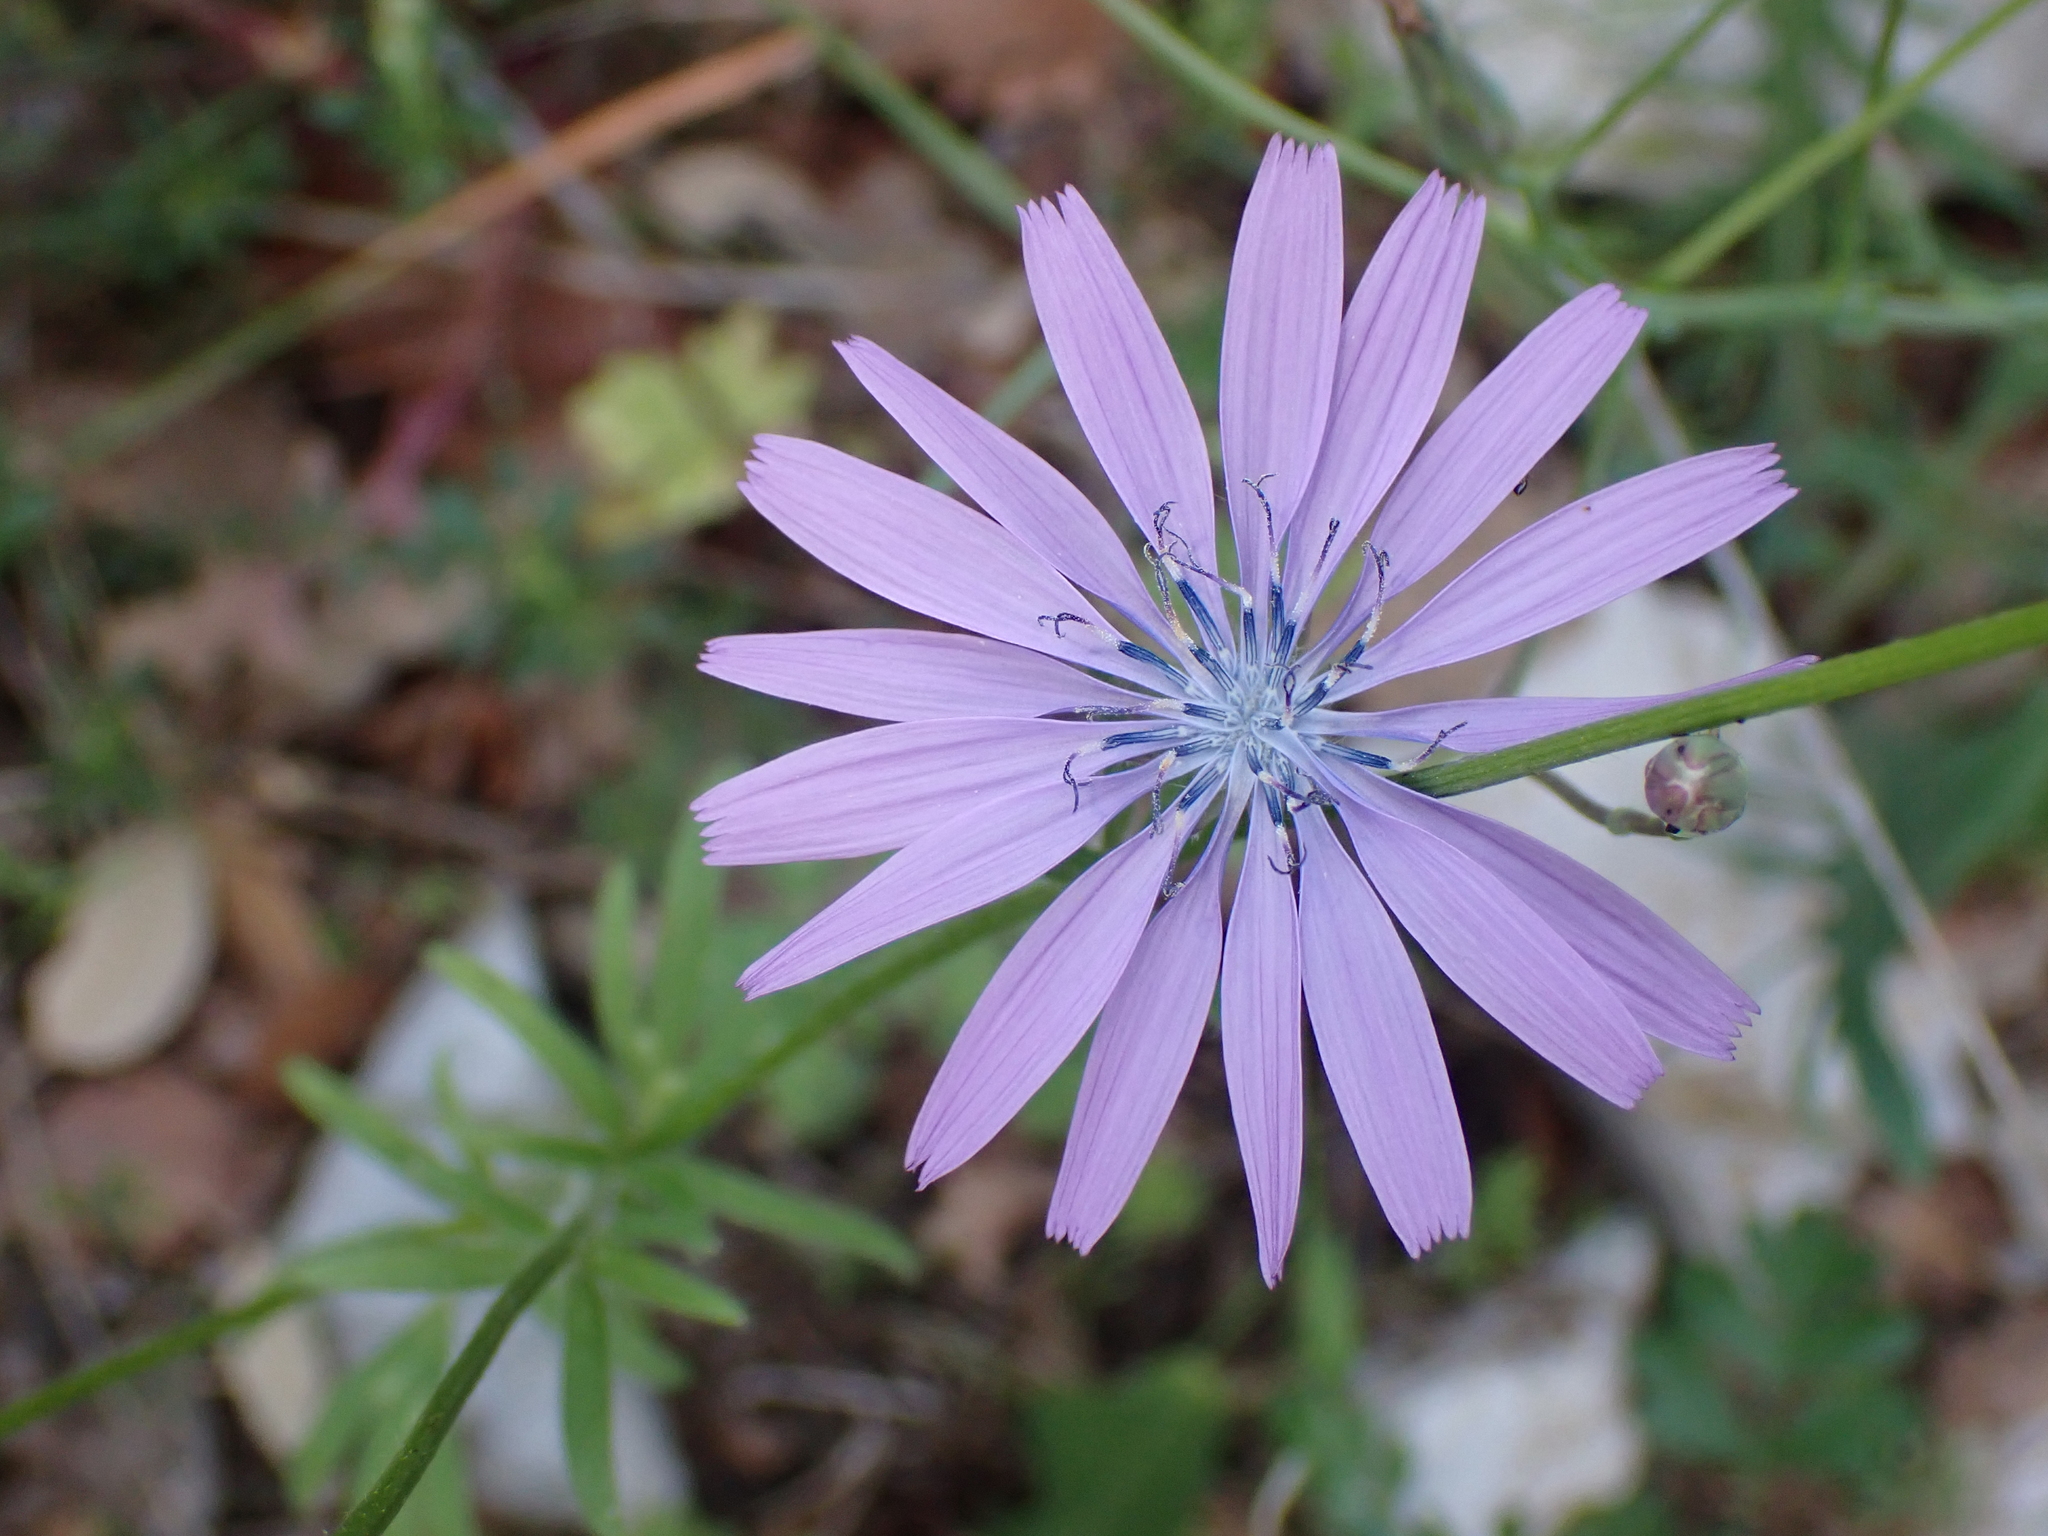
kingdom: Plantae
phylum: Tracheophyta
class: Magnoliopsida
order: Asterales
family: Asteraceae
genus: Lactuca
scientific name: Lactuca perennis
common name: Mountain lettuce
